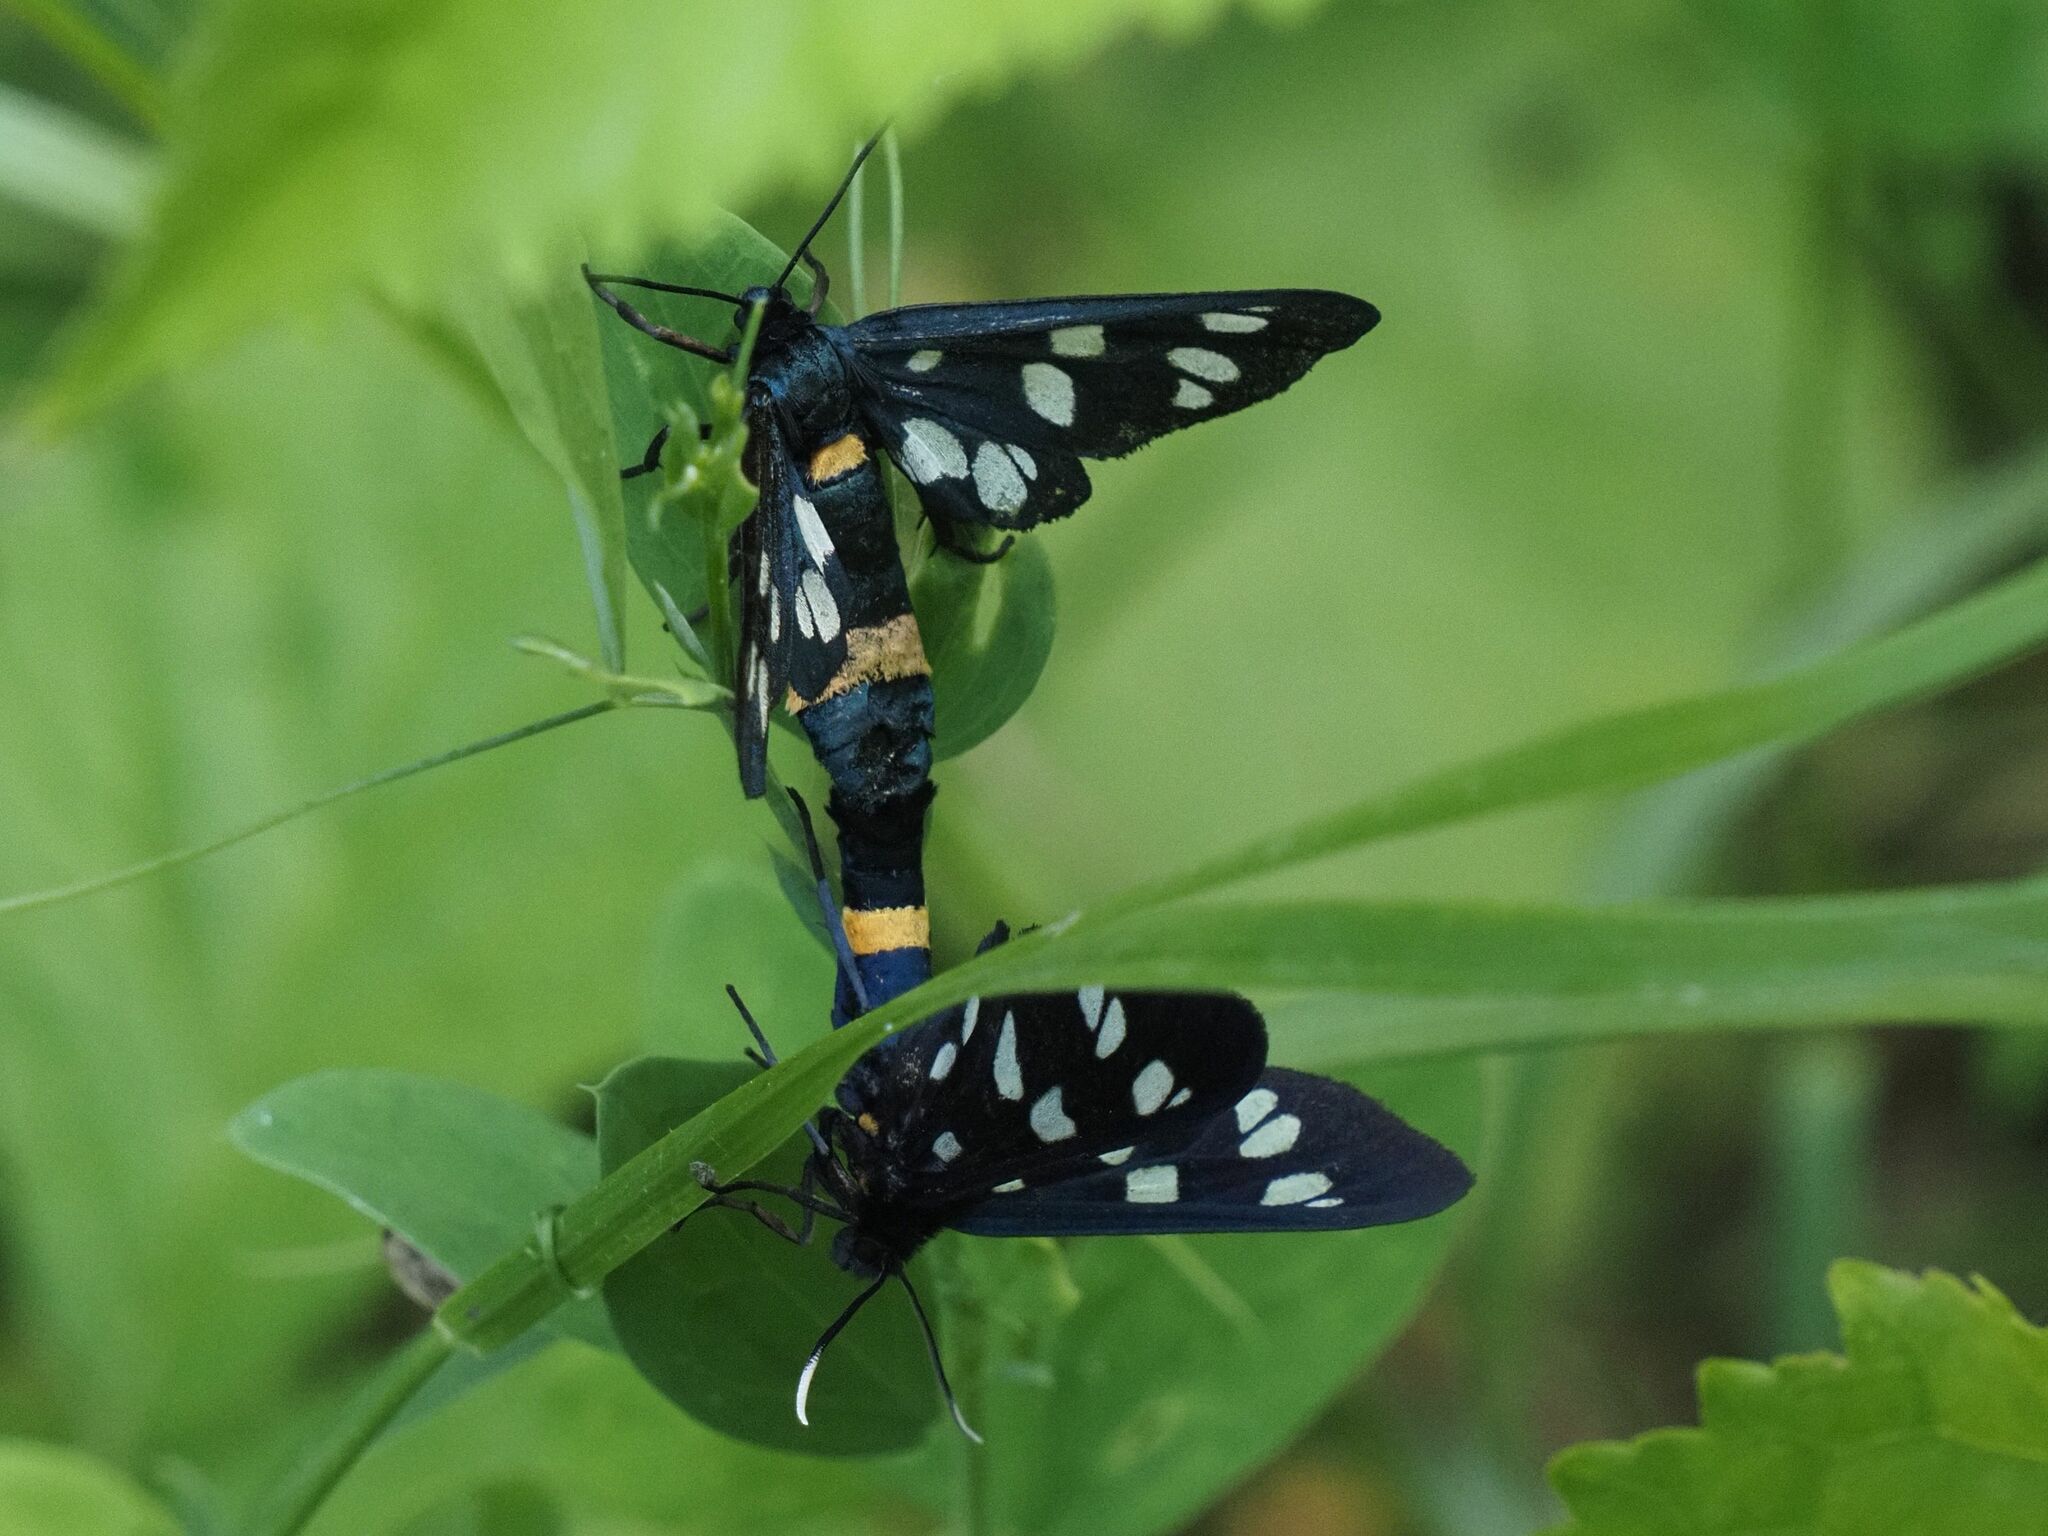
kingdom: Animalia
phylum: Arthropoda
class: Insecta
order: Lepidoptera
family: Erebidae
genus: Amata
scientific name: Amata phegea
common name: Nine-spotted
